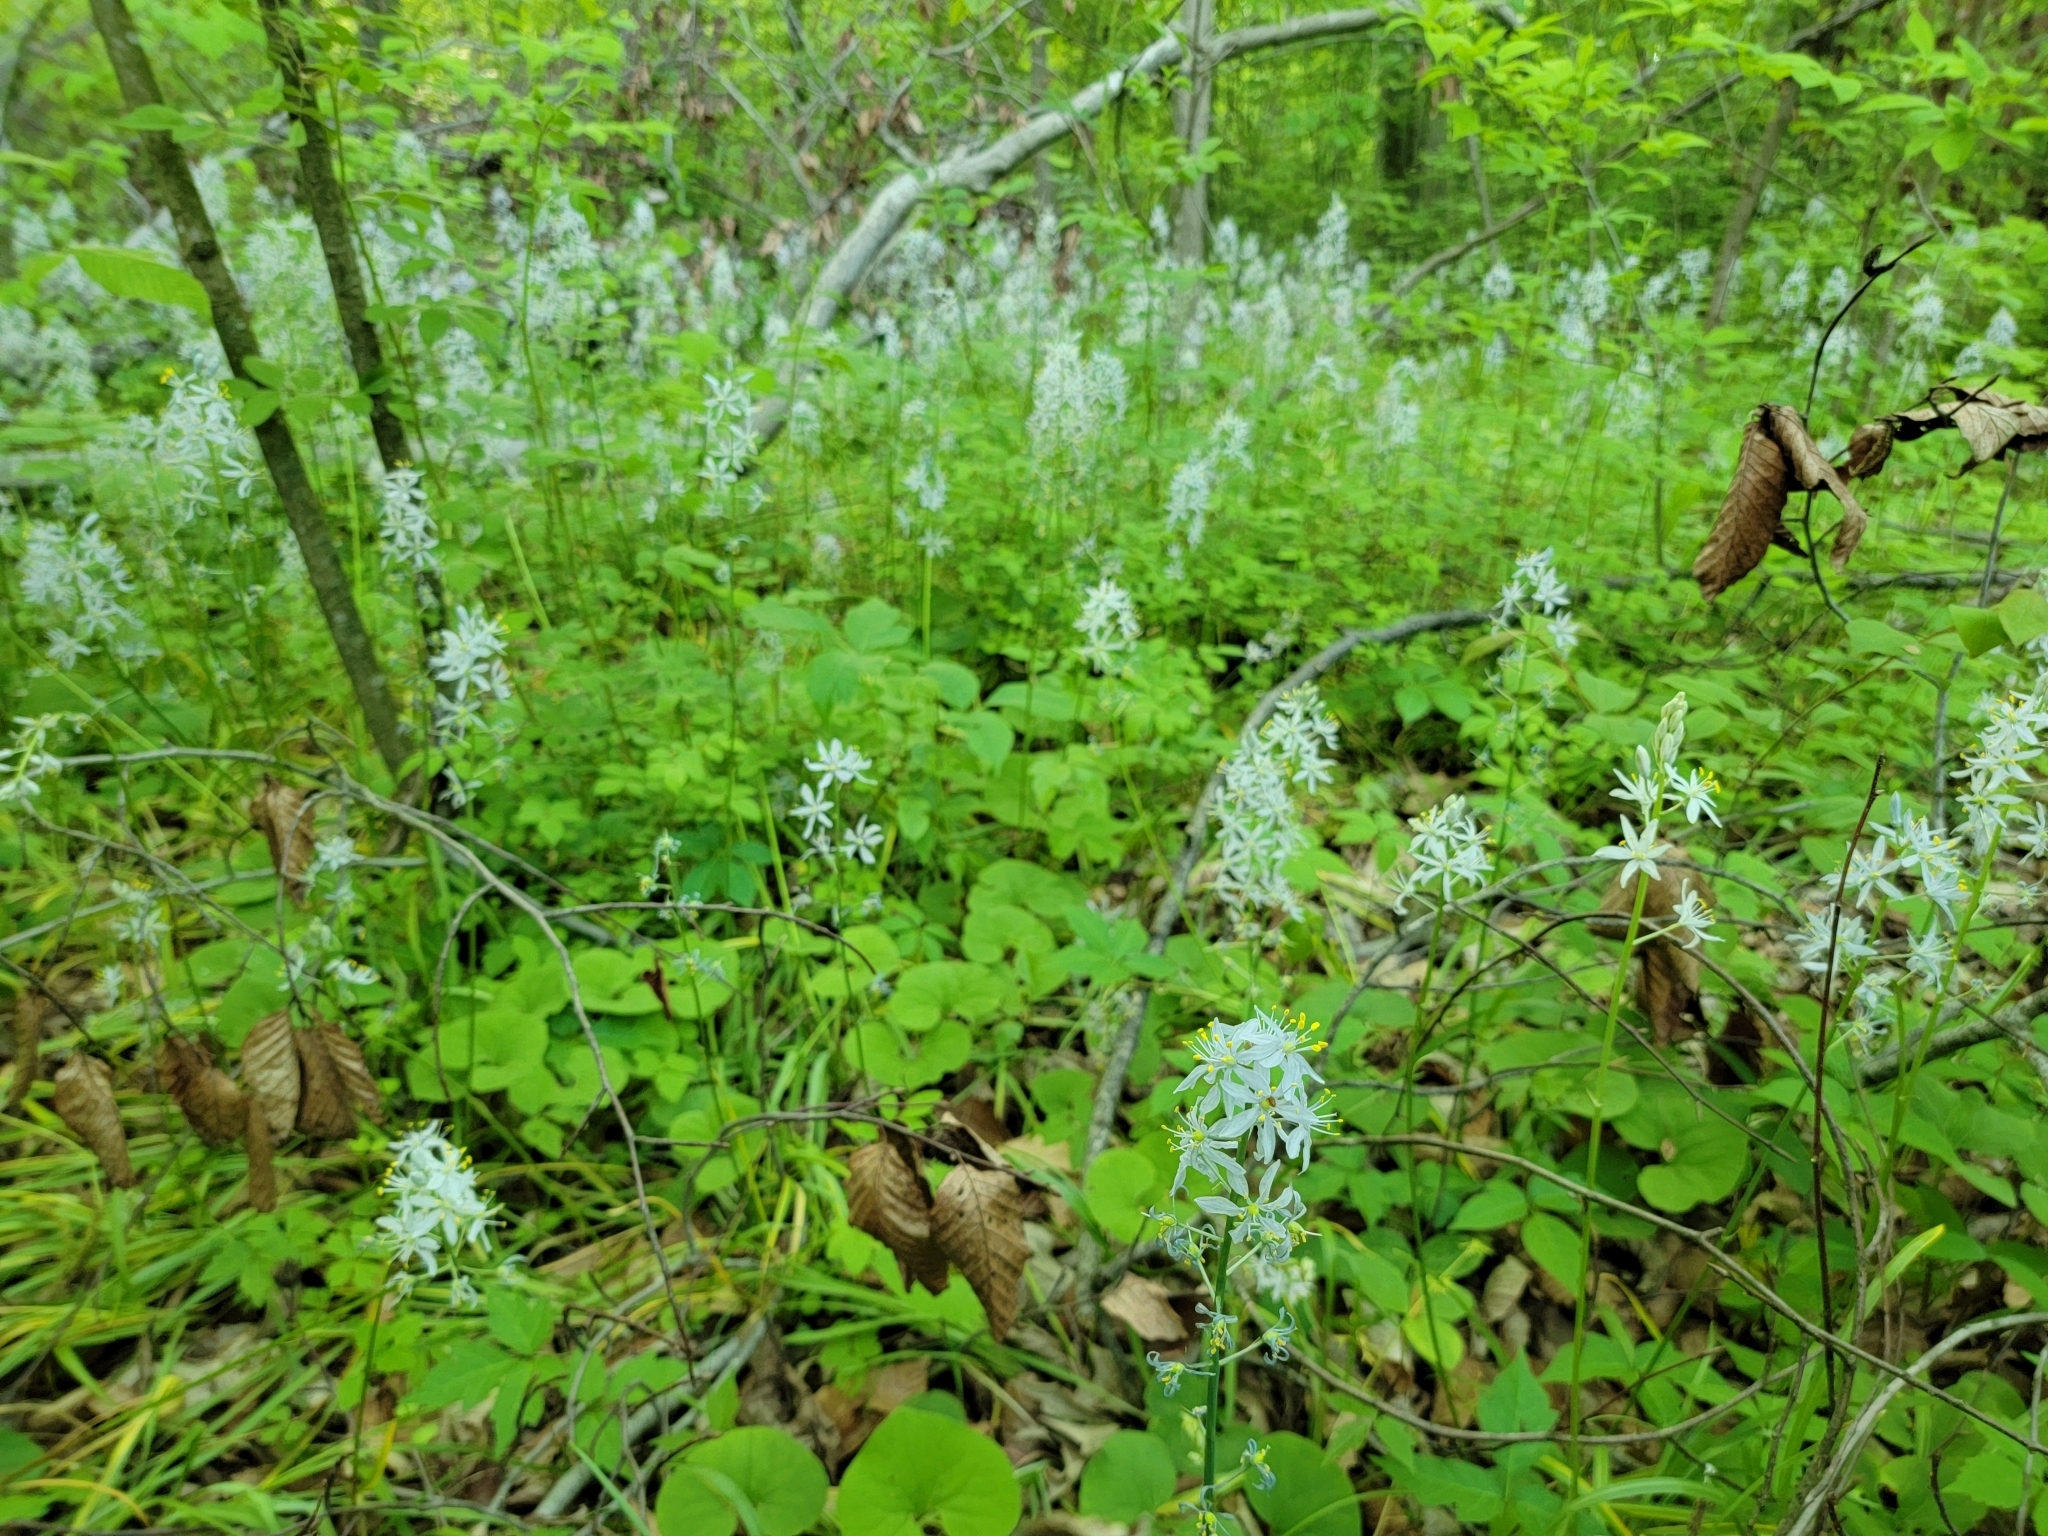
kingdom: Plantae
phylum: Tracheophyta
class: Liliopsida
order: Asparagales
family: Asparagaceae
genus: Camassia
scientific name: Camassia scilloides
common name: Wild hyacinth
